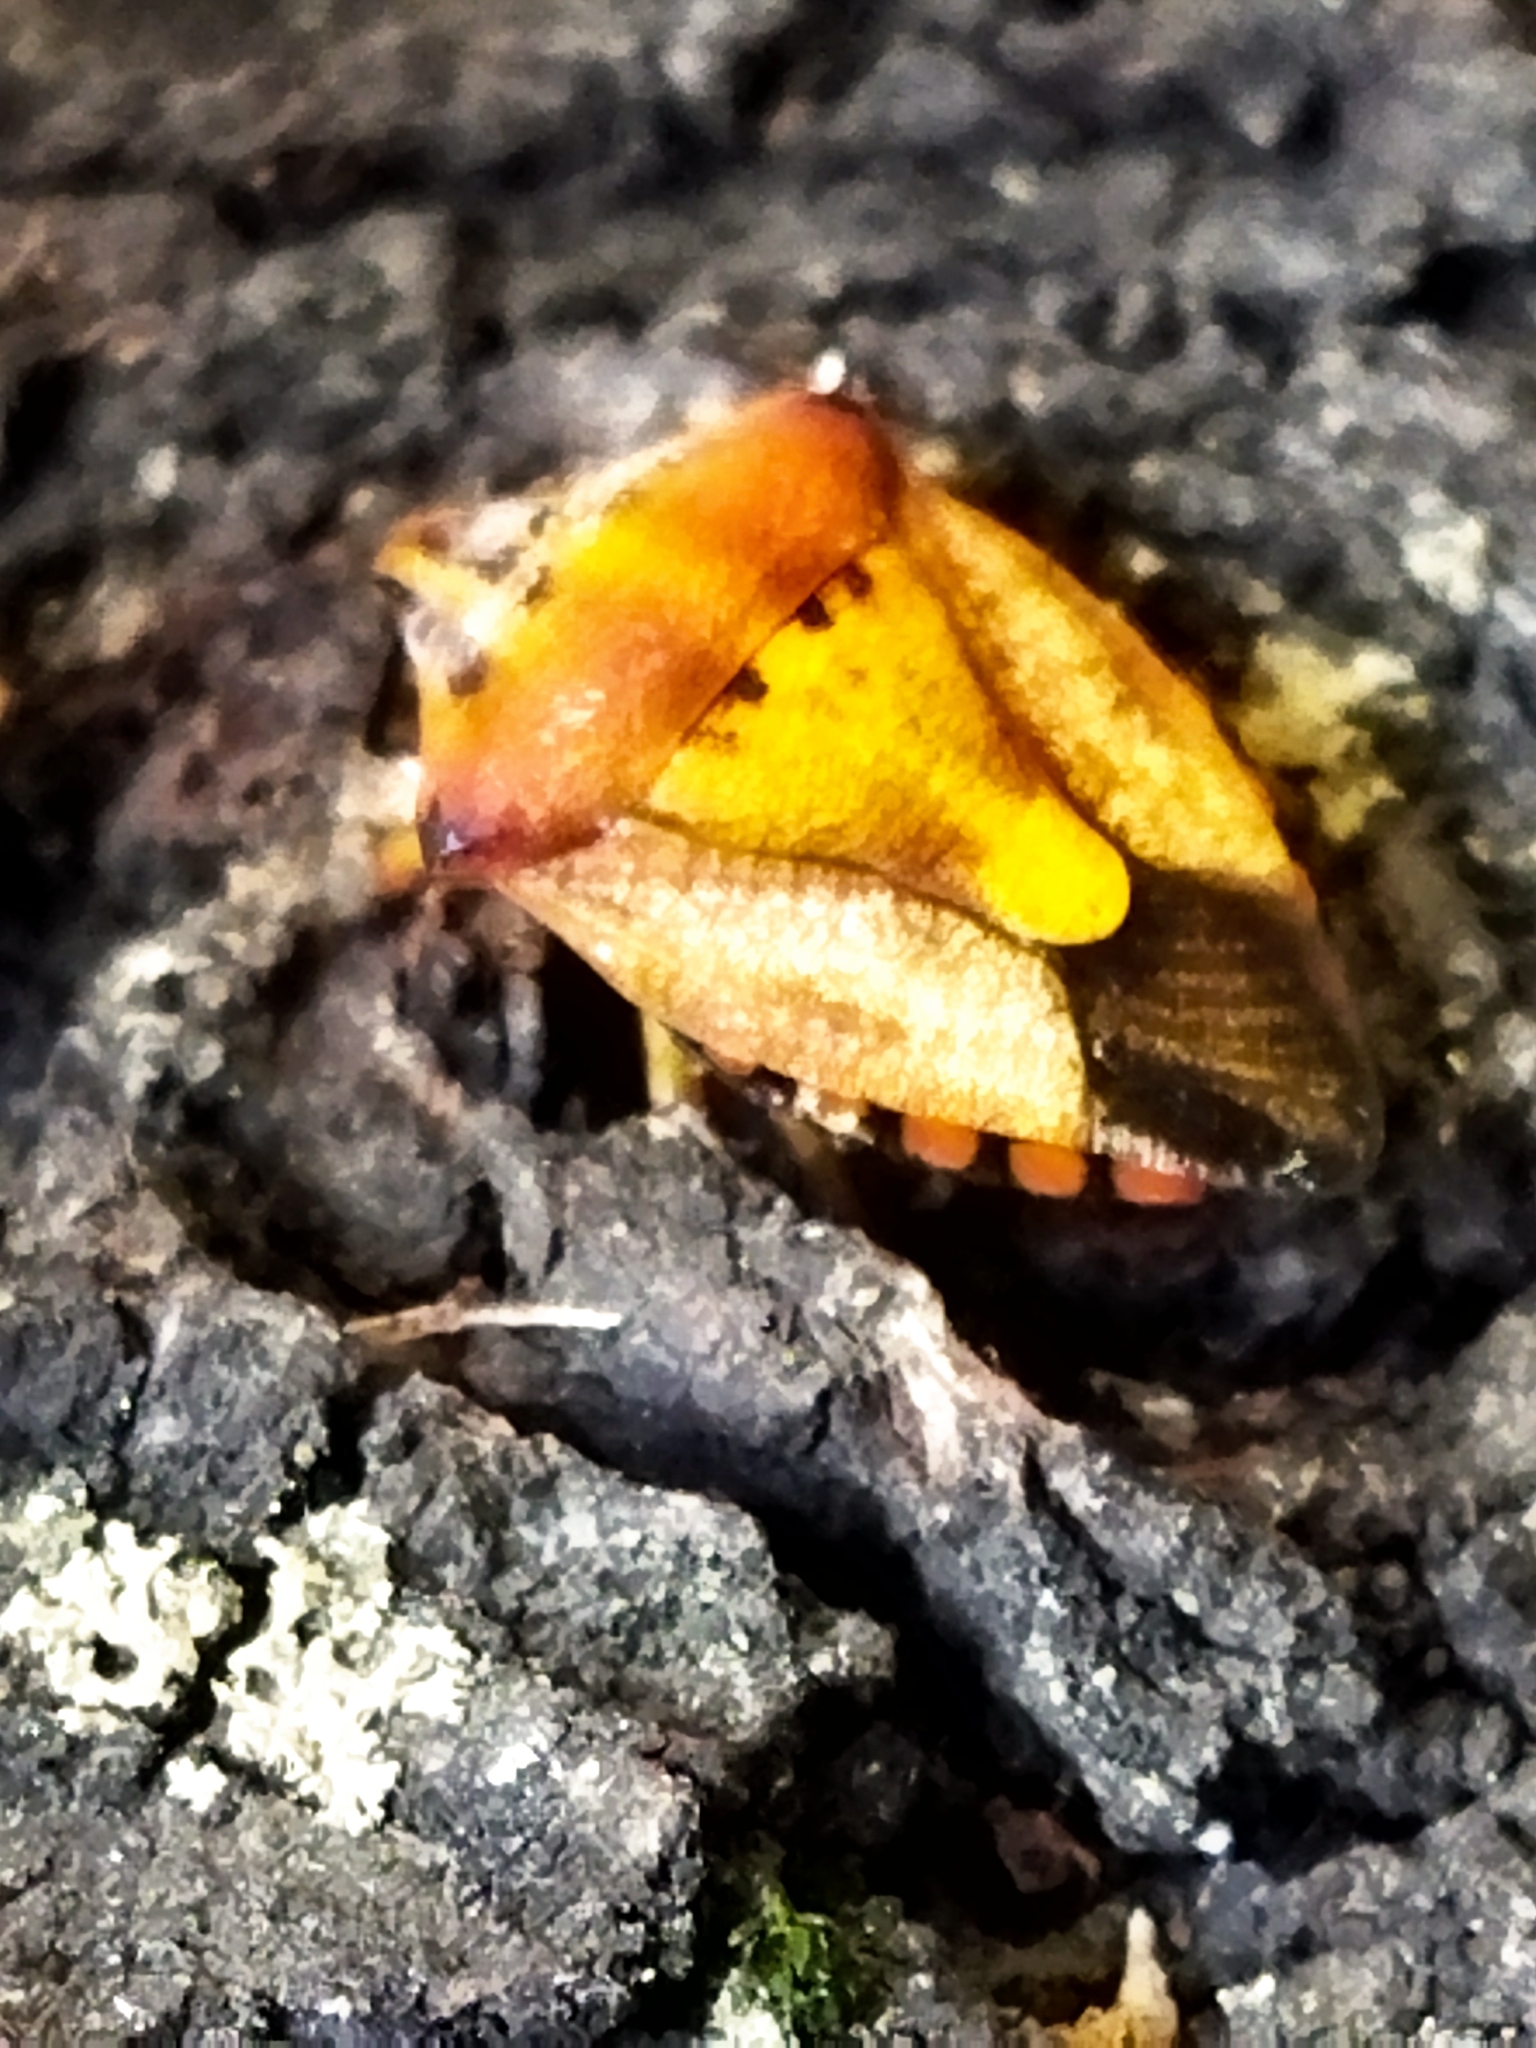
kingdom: Animalia
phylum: Arthropoda
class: Insecta
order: Hemiptera
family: Pentatomidae
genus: Carpocoris
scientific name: Carpocoris mediterraneus
